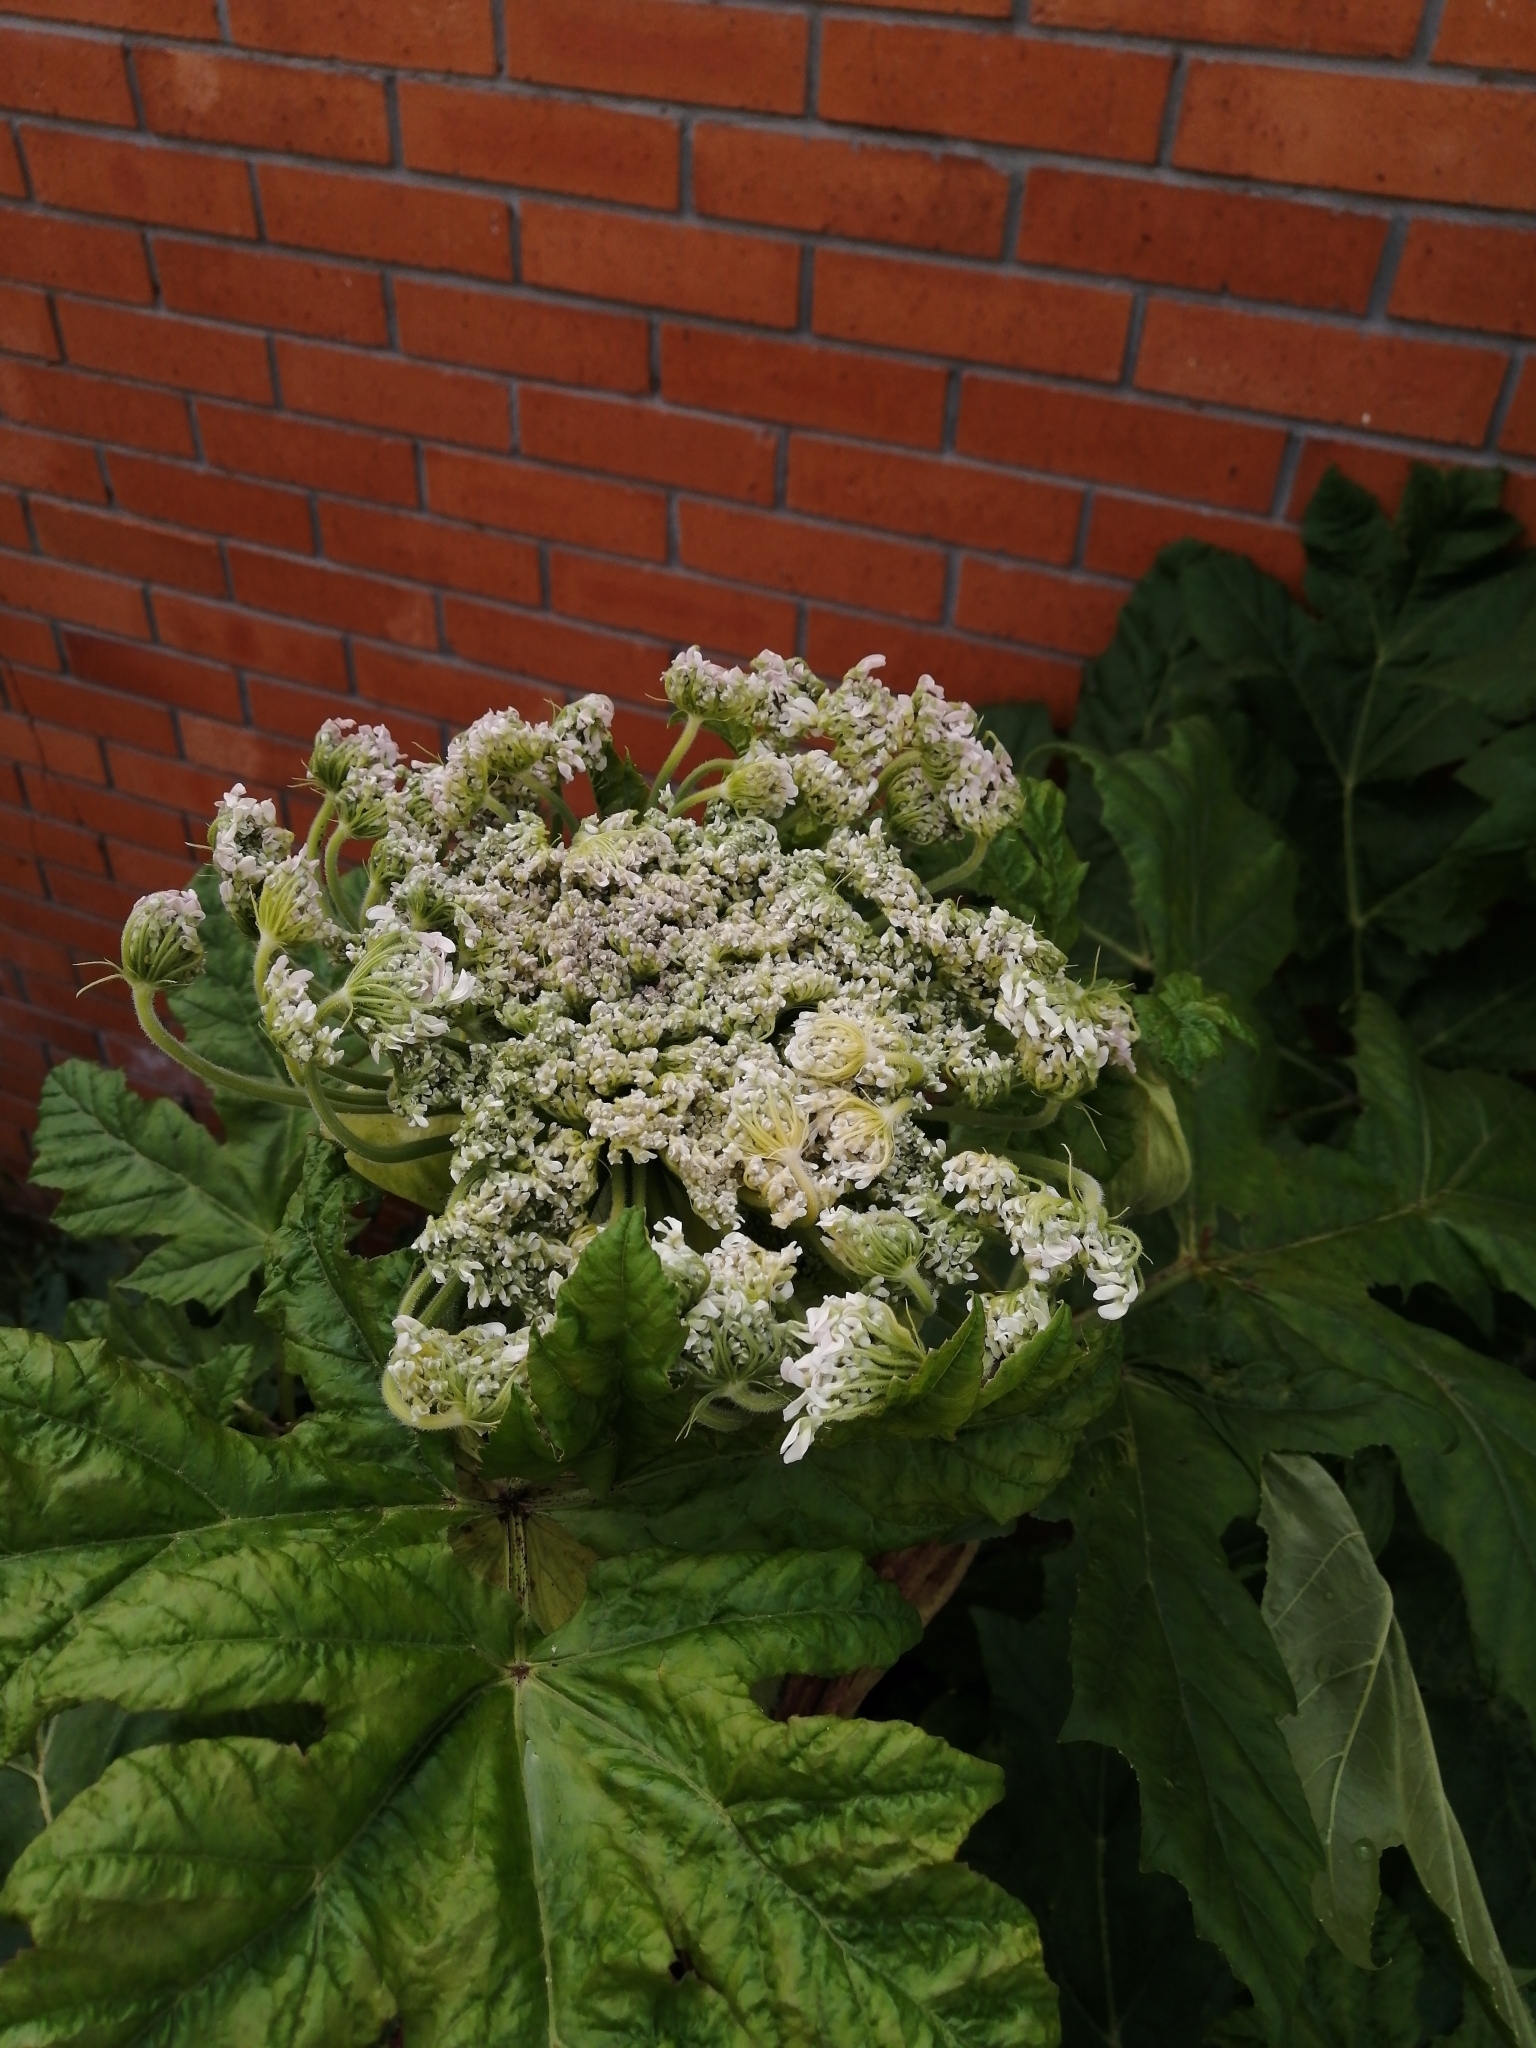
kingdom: Plantae
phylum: Tracheophyta
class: Magnoliopsida
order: Apiales
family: Apiaceae
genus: Heracleum
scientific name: Heracleum sosnowskyi
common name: Sosnowsky's hogweed
